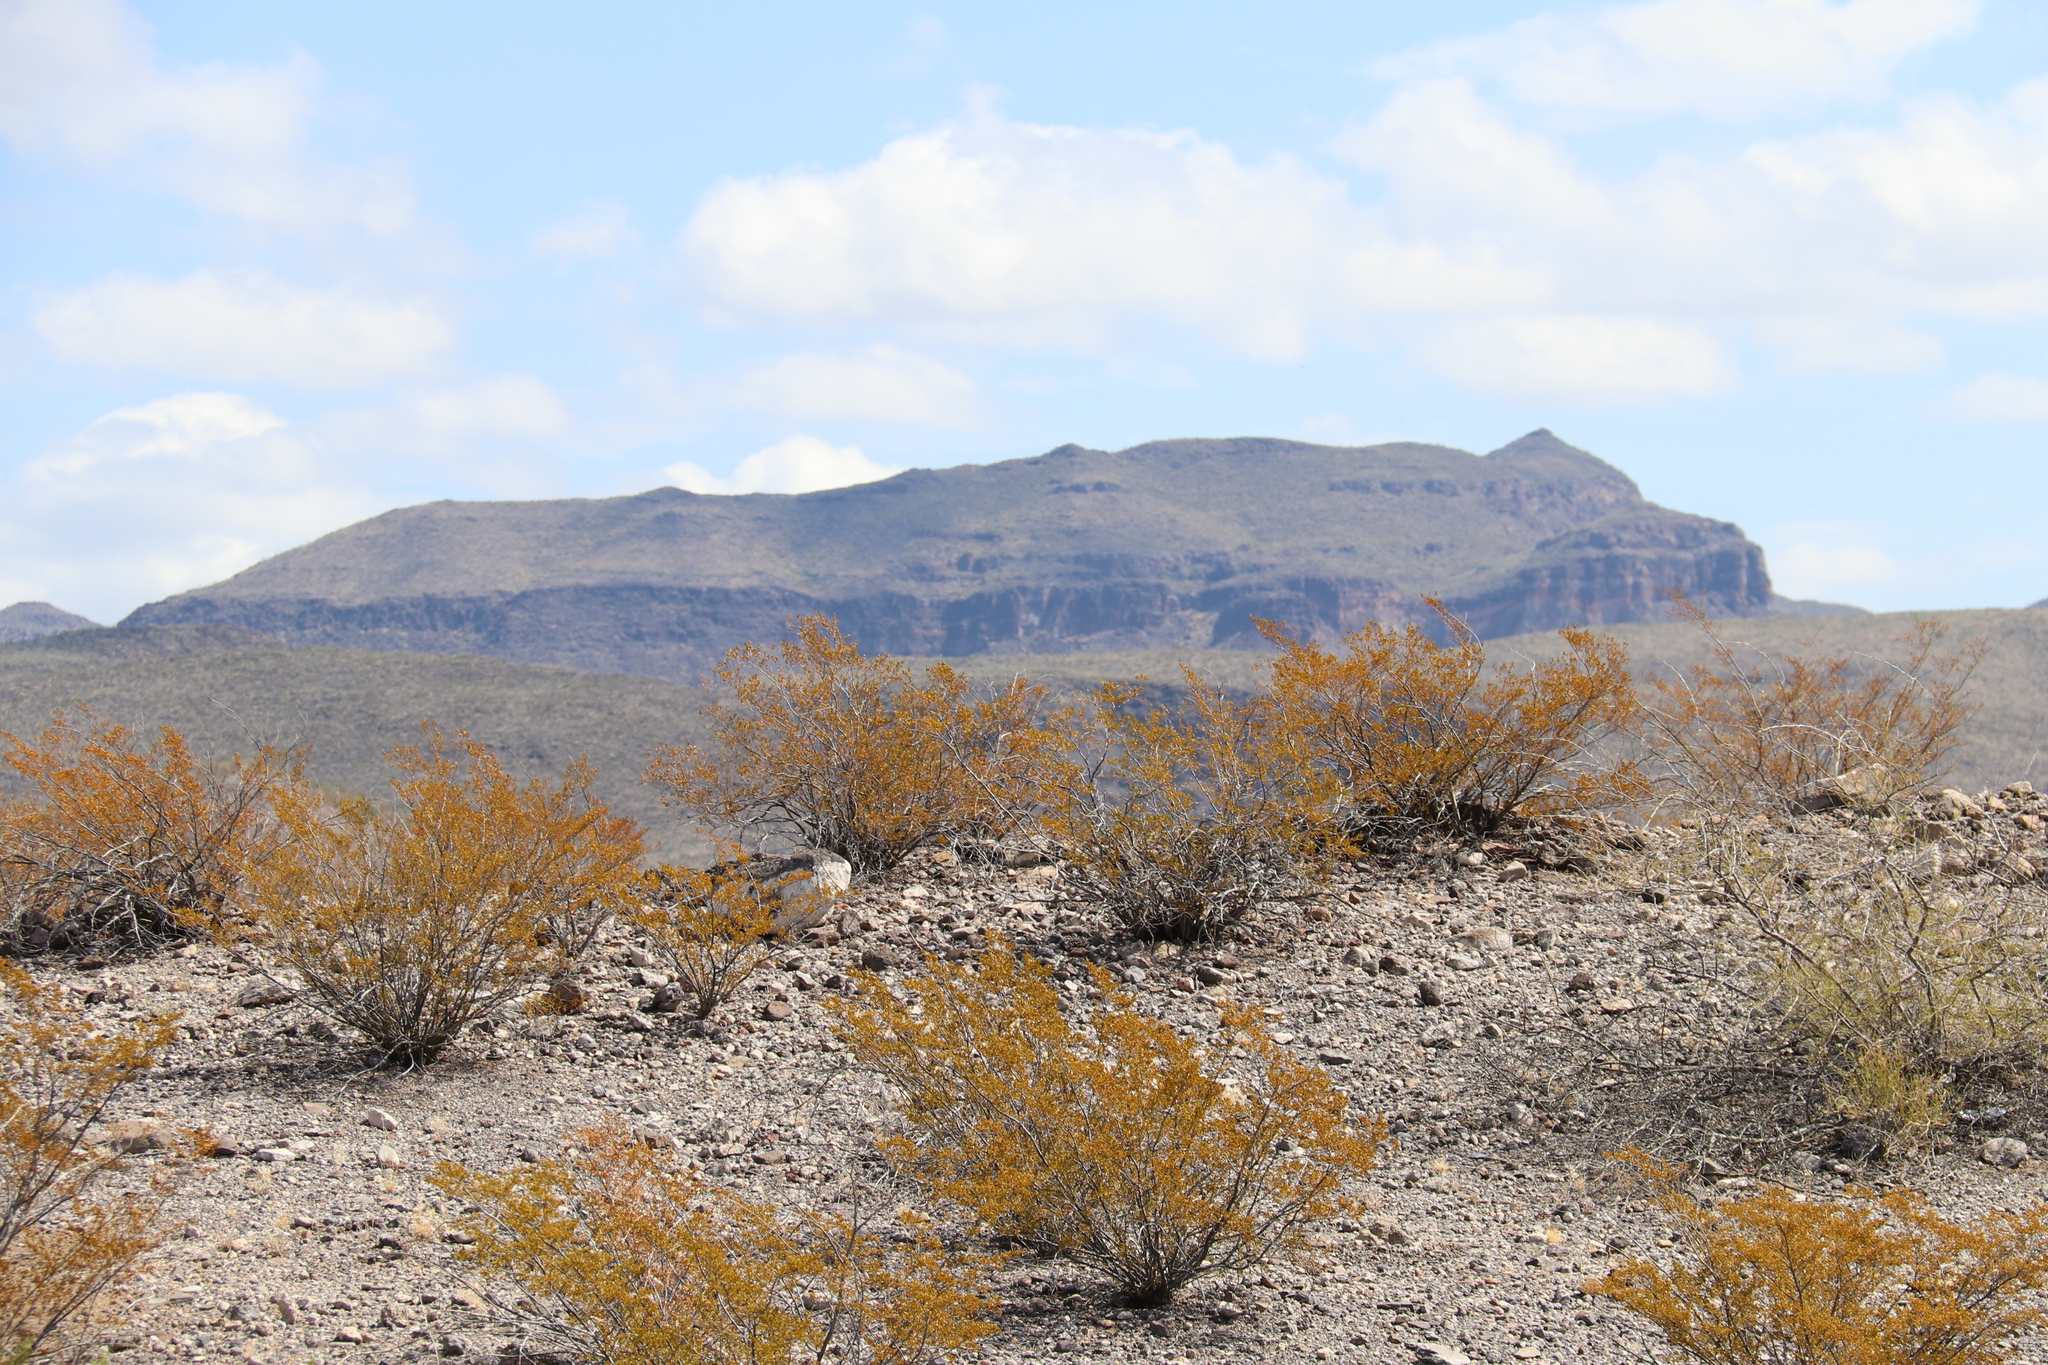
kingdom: Plantae
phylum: Tracheophyta
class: Magnoliopsida
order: Zygophyllales
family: Zygophyllaceae
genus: Larrea
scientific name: Larrea tridentata
